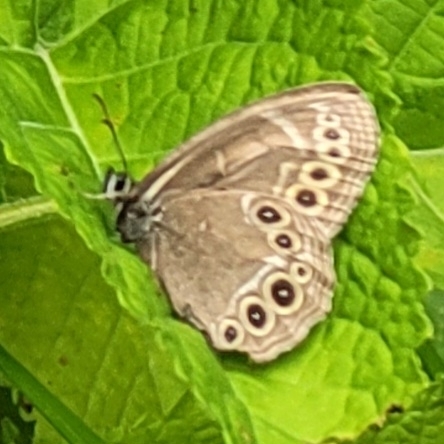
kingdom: Animalia
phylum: Arthropoda
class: Insecta
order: Lepidoptera
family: Nymphalidae
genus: Pararge
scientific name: Pararge Lopinga achine
